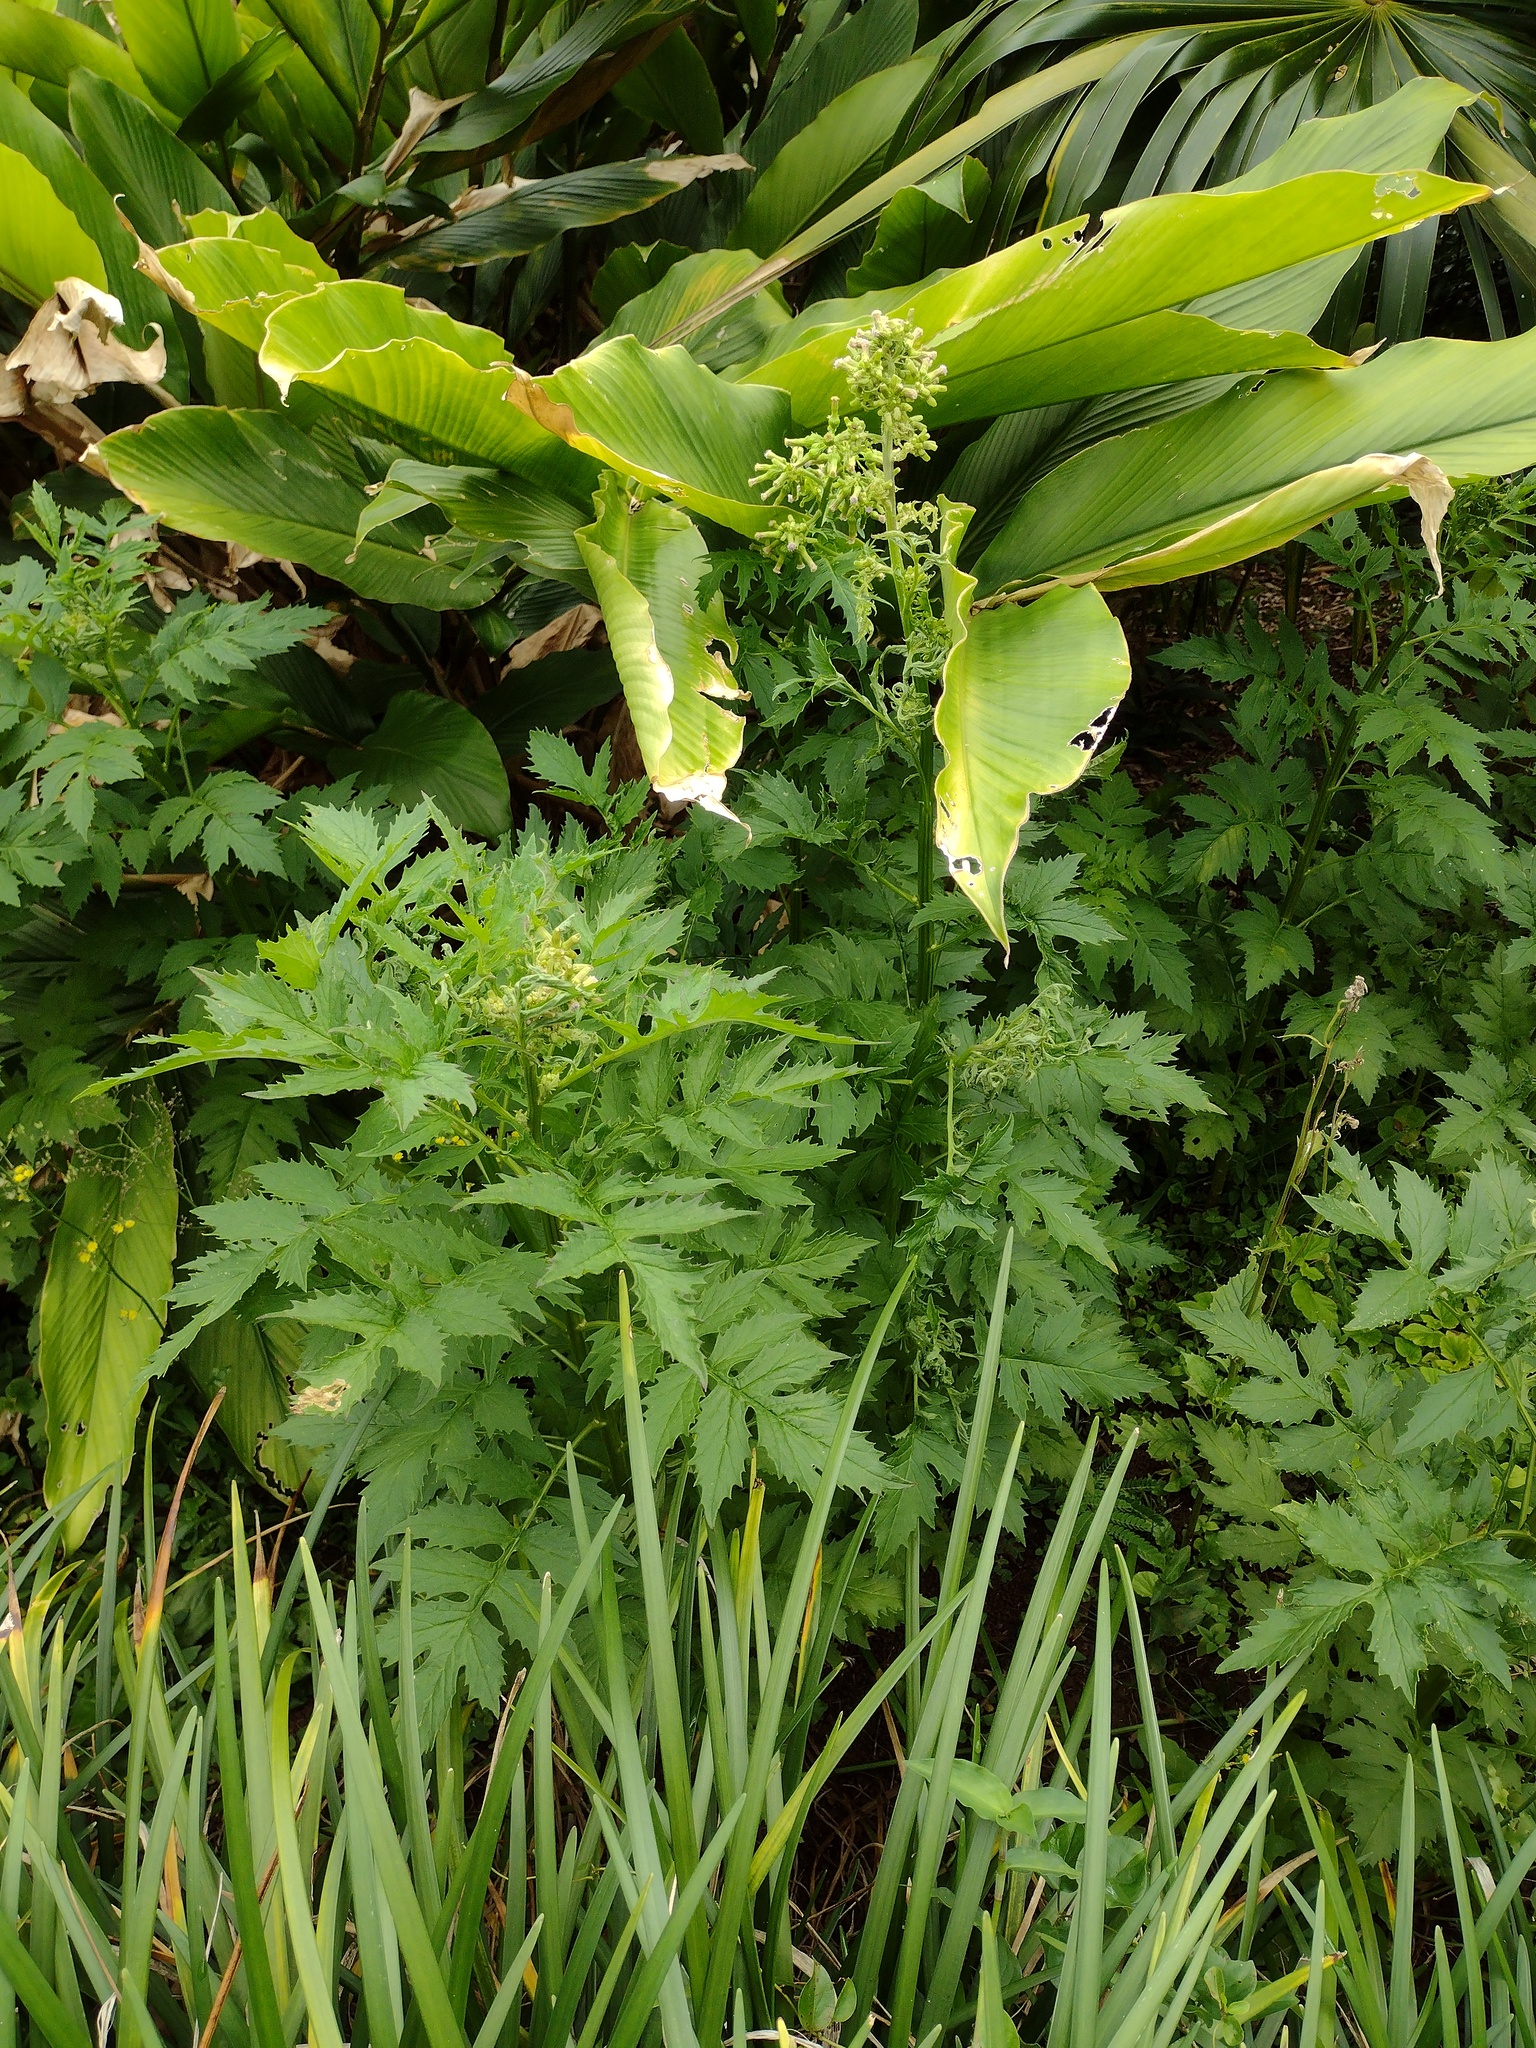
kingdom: Plantae
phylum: Tracheophyta
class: Magnoliopsida
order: Asterales
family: Asteraceae
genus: Erechtites
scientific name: Erechtites valerianifolius
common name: Tropical burnweed
